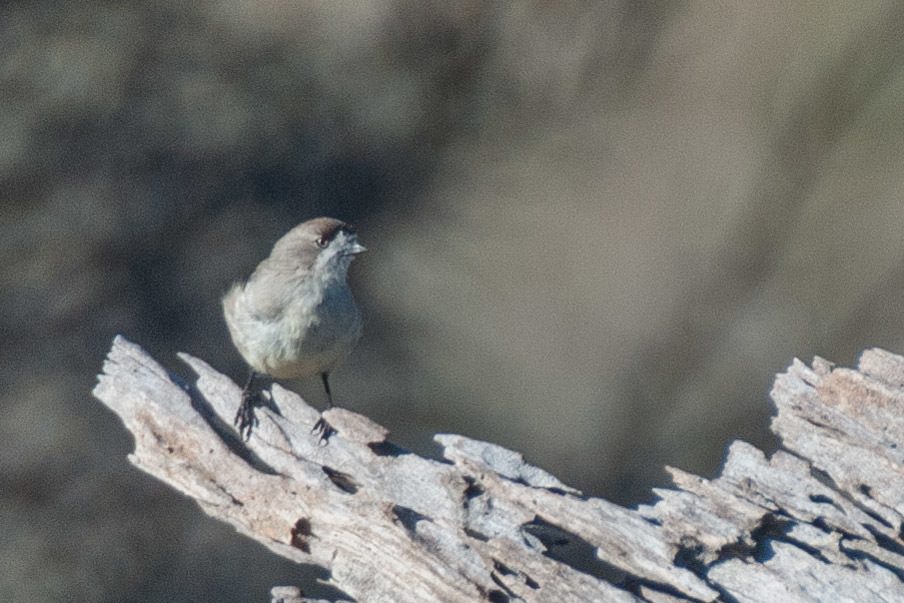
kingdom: Animalia
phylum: Chordata
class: Aves
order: Passeriformes
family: Acanthizidae
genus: Aphelocephala
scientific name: Aphelocephala leucopsis
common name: Southern whiteface
